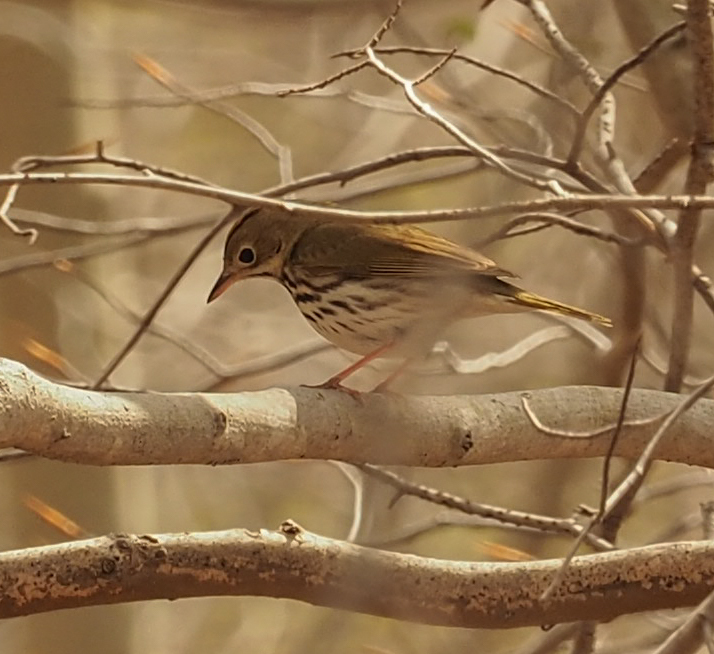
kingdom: Animalia
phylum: Chordata
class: Aves
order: Passeriformes
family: Parulidae
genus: Seiurus
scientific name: Seiurus aurocapilla
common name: Ovenbird
